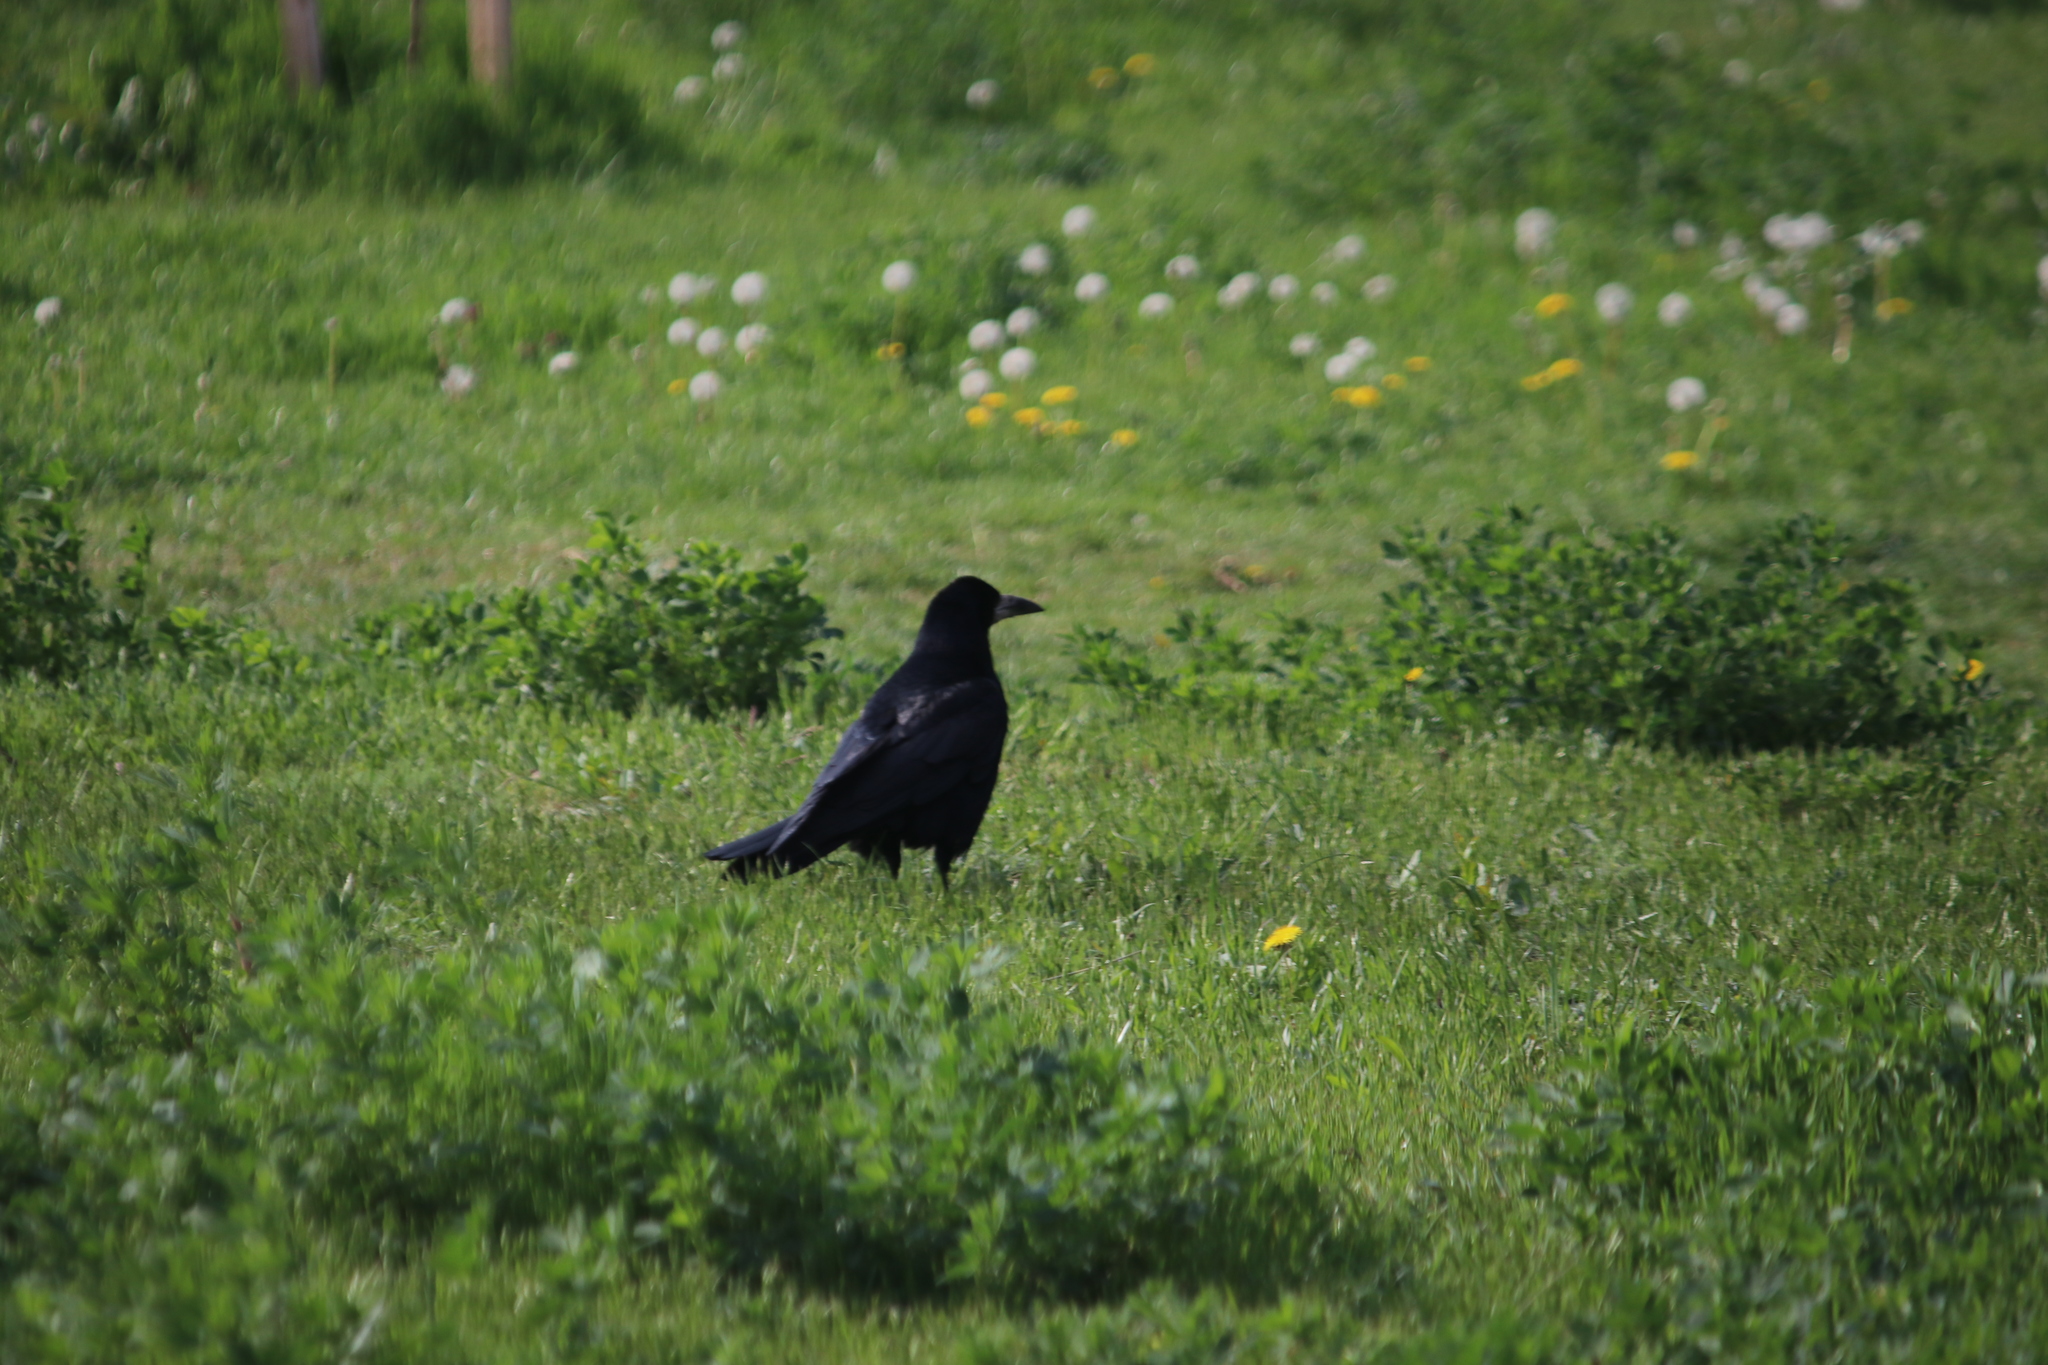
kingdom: Animalia
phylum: Chordata
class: Aves
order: Passeriformes
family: Corvidae
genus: Corvus
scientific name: Corvus frugilegus
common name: Rook
